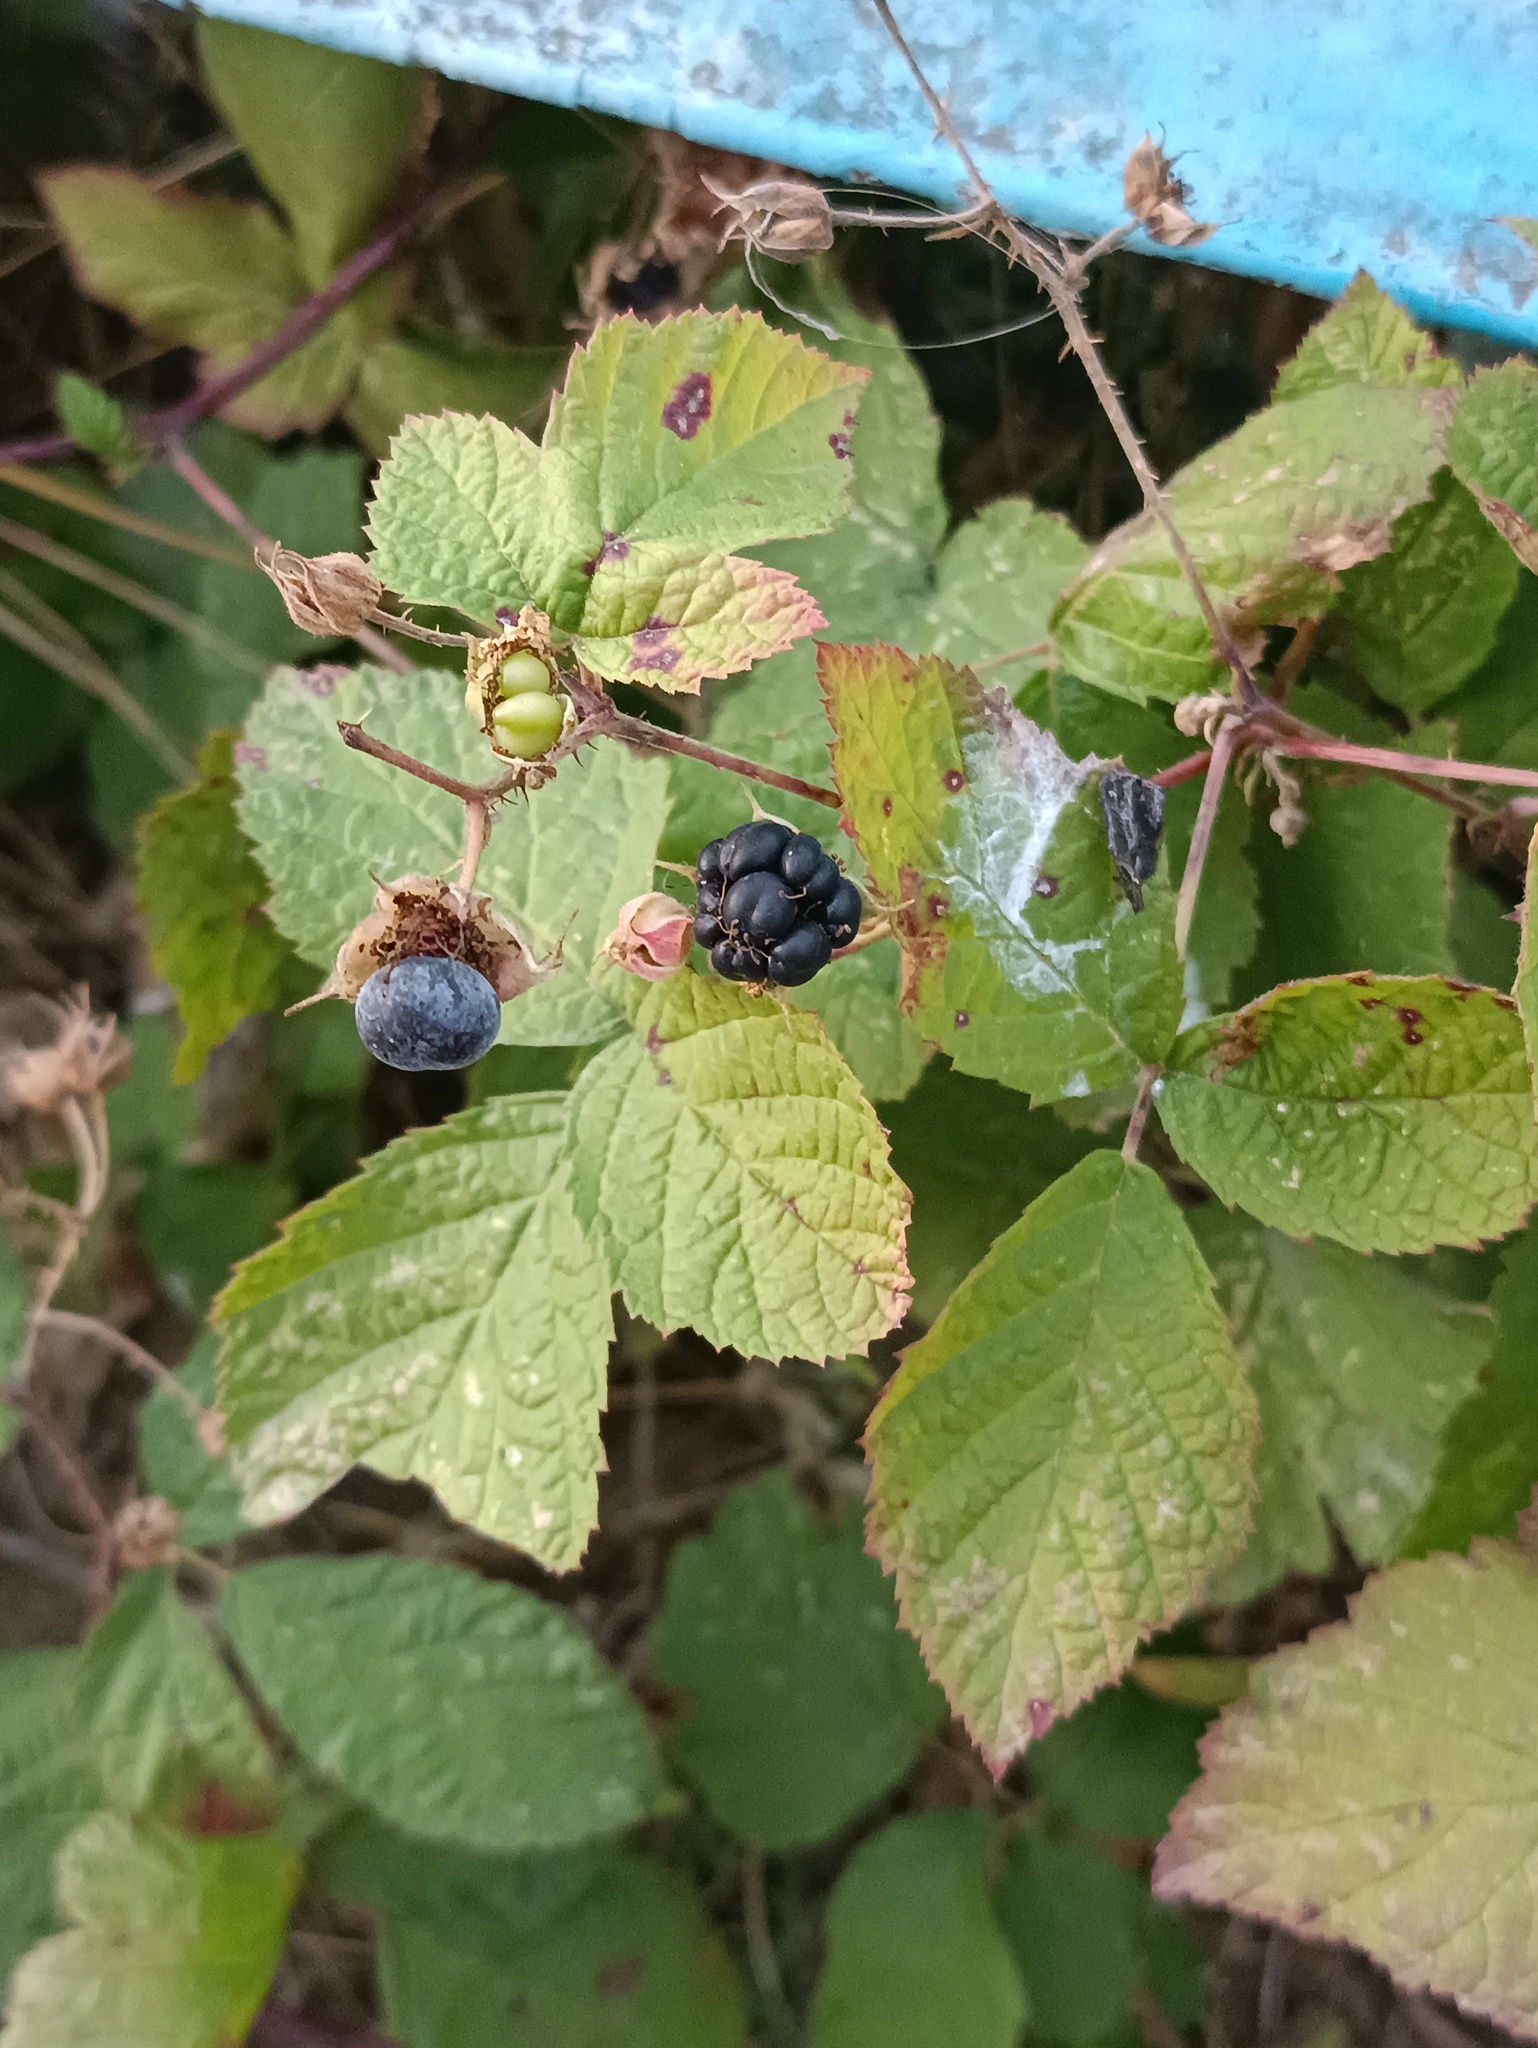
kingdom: Plantae
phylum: Tracheophyta
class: Magnoliopsida
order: Rosales
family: Rosaceae
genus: Rubus
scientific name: Rubus caesius
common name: Dewberry
